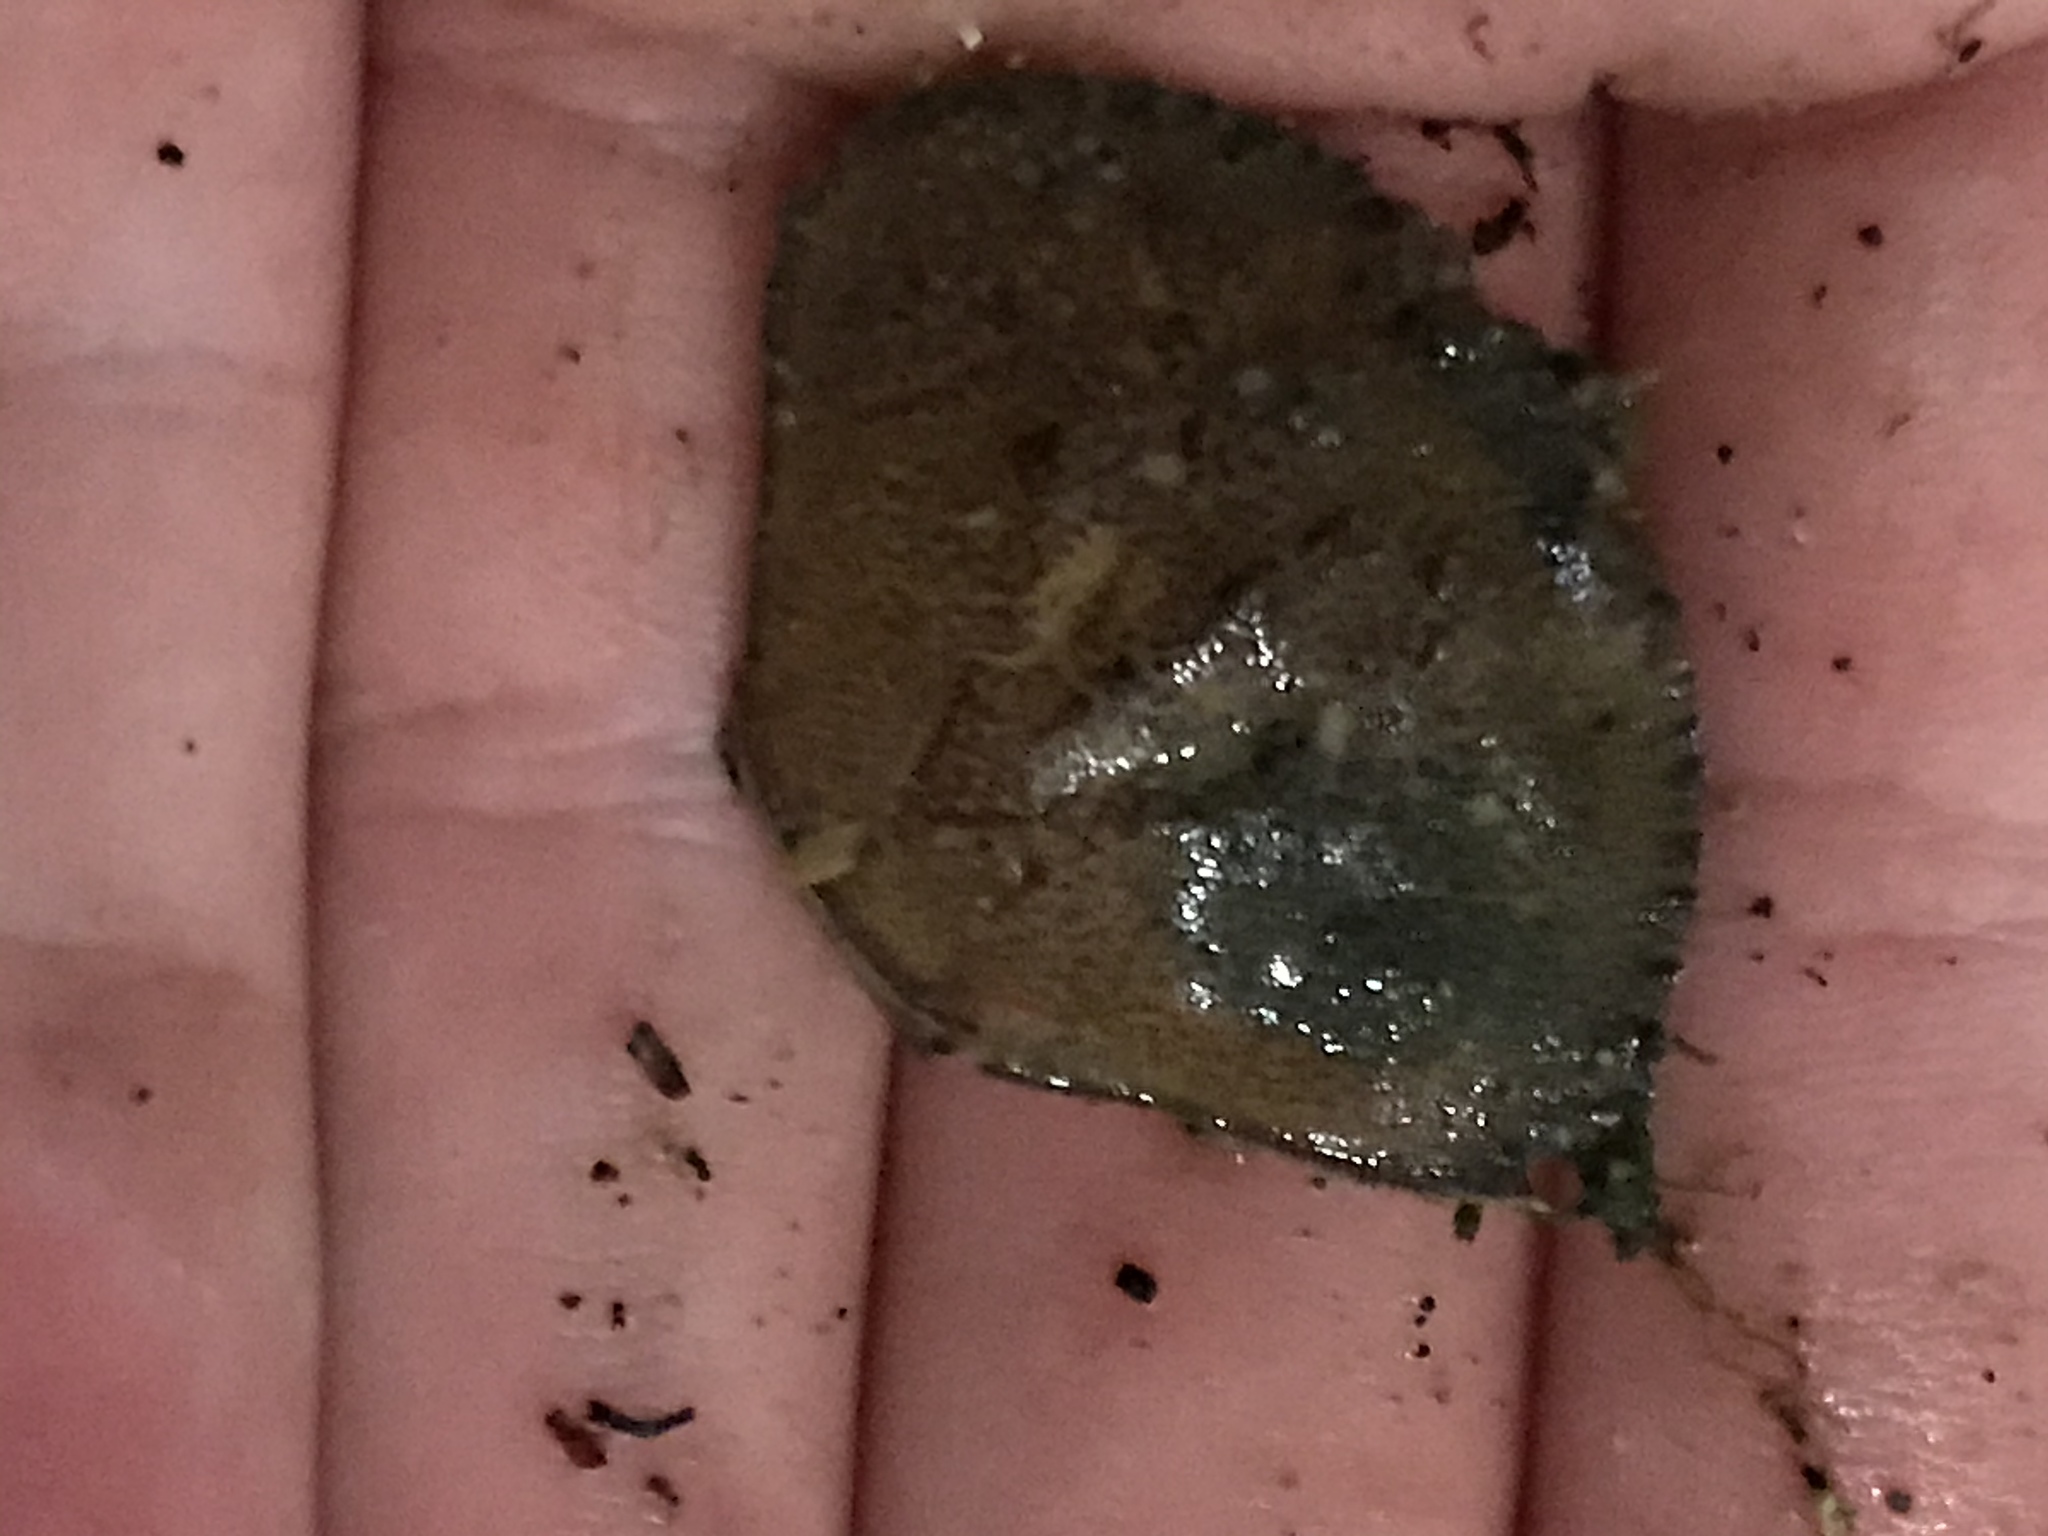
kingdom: Animalia
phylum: Arthropoda
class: Malacostraca
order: Decapoda
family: Cancridae
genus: Metacarcinus
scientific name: Metacarcinus magister
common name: Californian crab
